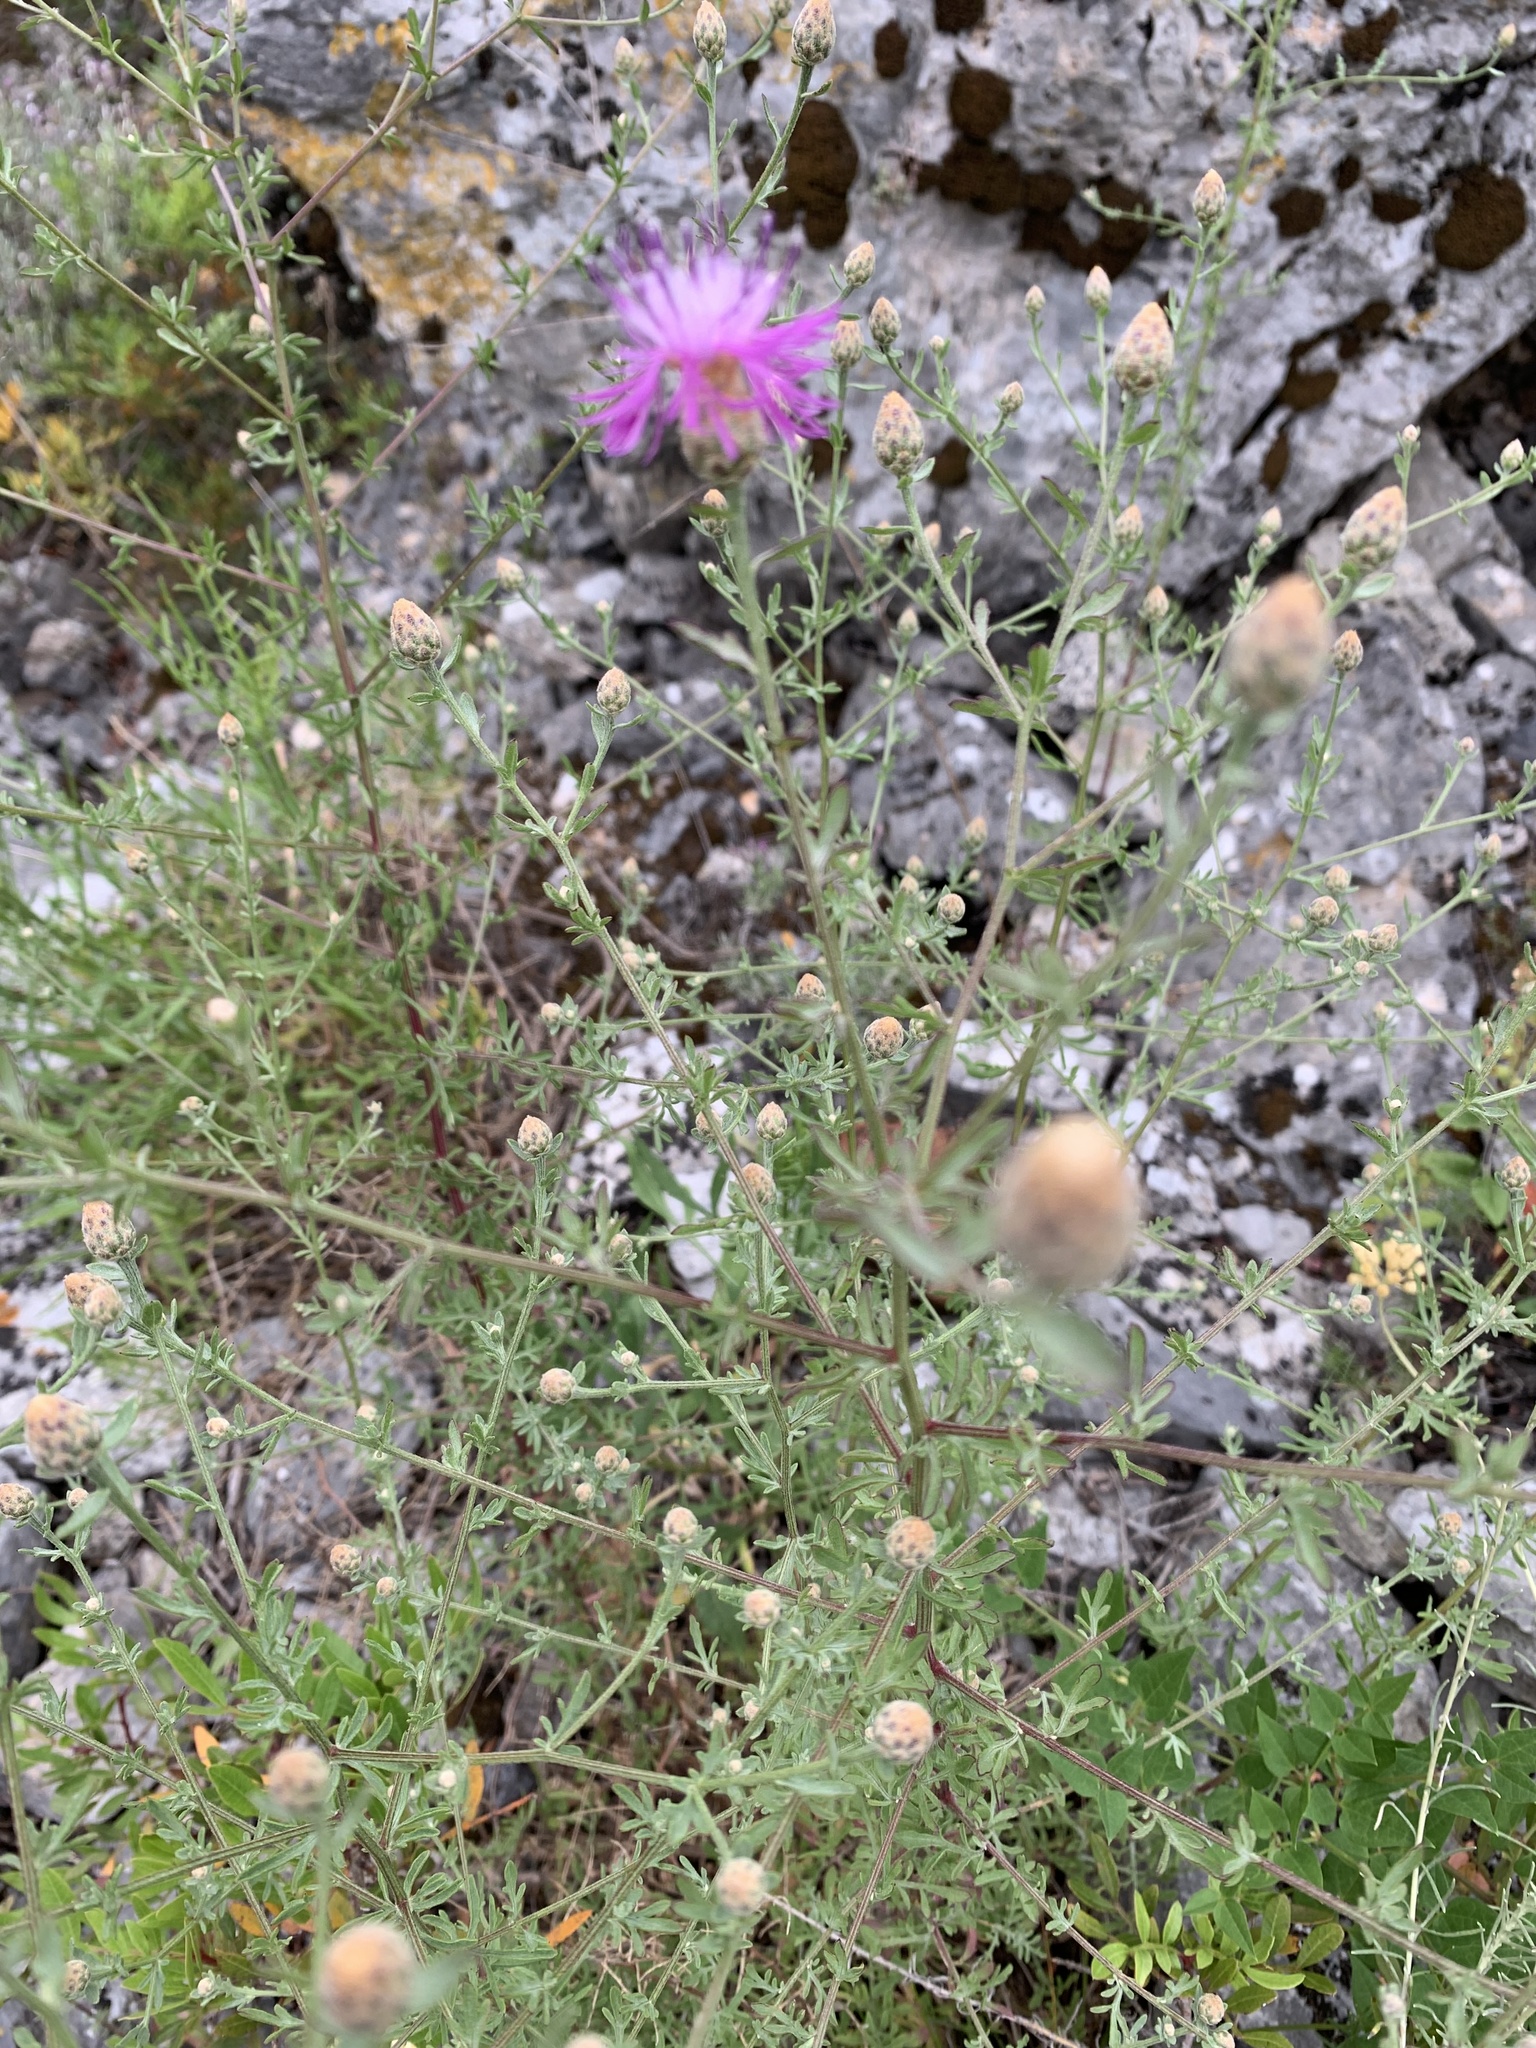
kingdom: Plantae
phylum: Tracheophyta
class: Magnoliopsida
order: Asterales
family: Asteraceae
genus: Centaurea
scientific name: Centaurea aplolepa
